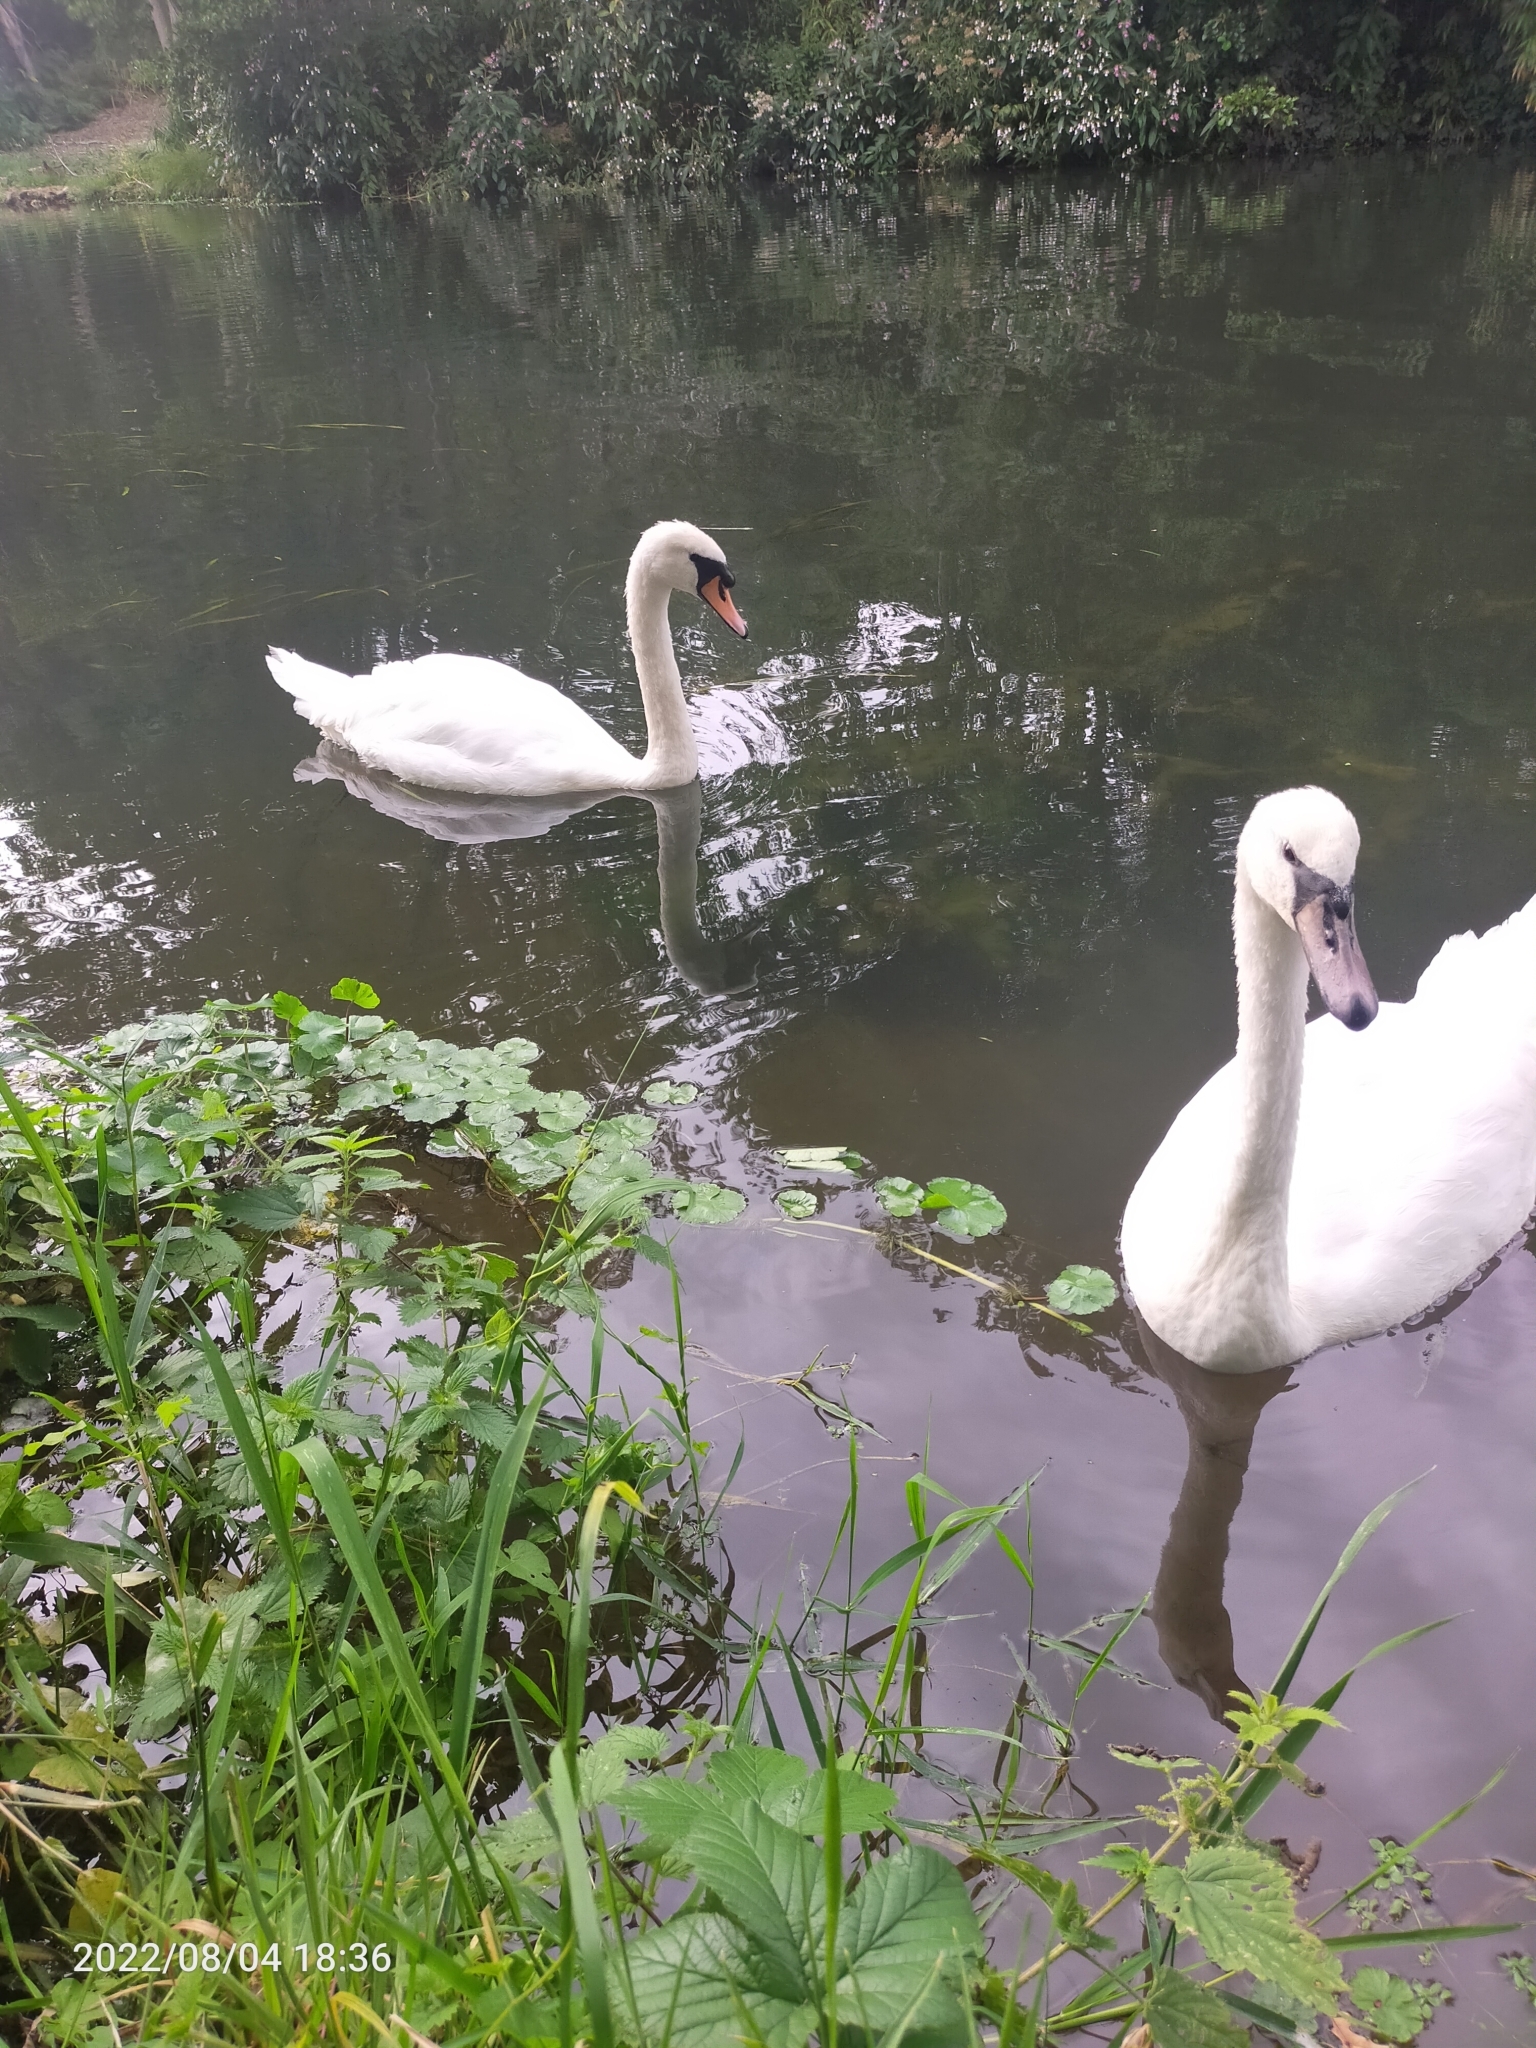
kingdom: Animalia
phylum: Chordata
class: Aves
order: Anseriformes
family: Anatidae
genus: Cygnus
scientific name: Cygnus olor
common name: Mute swan
